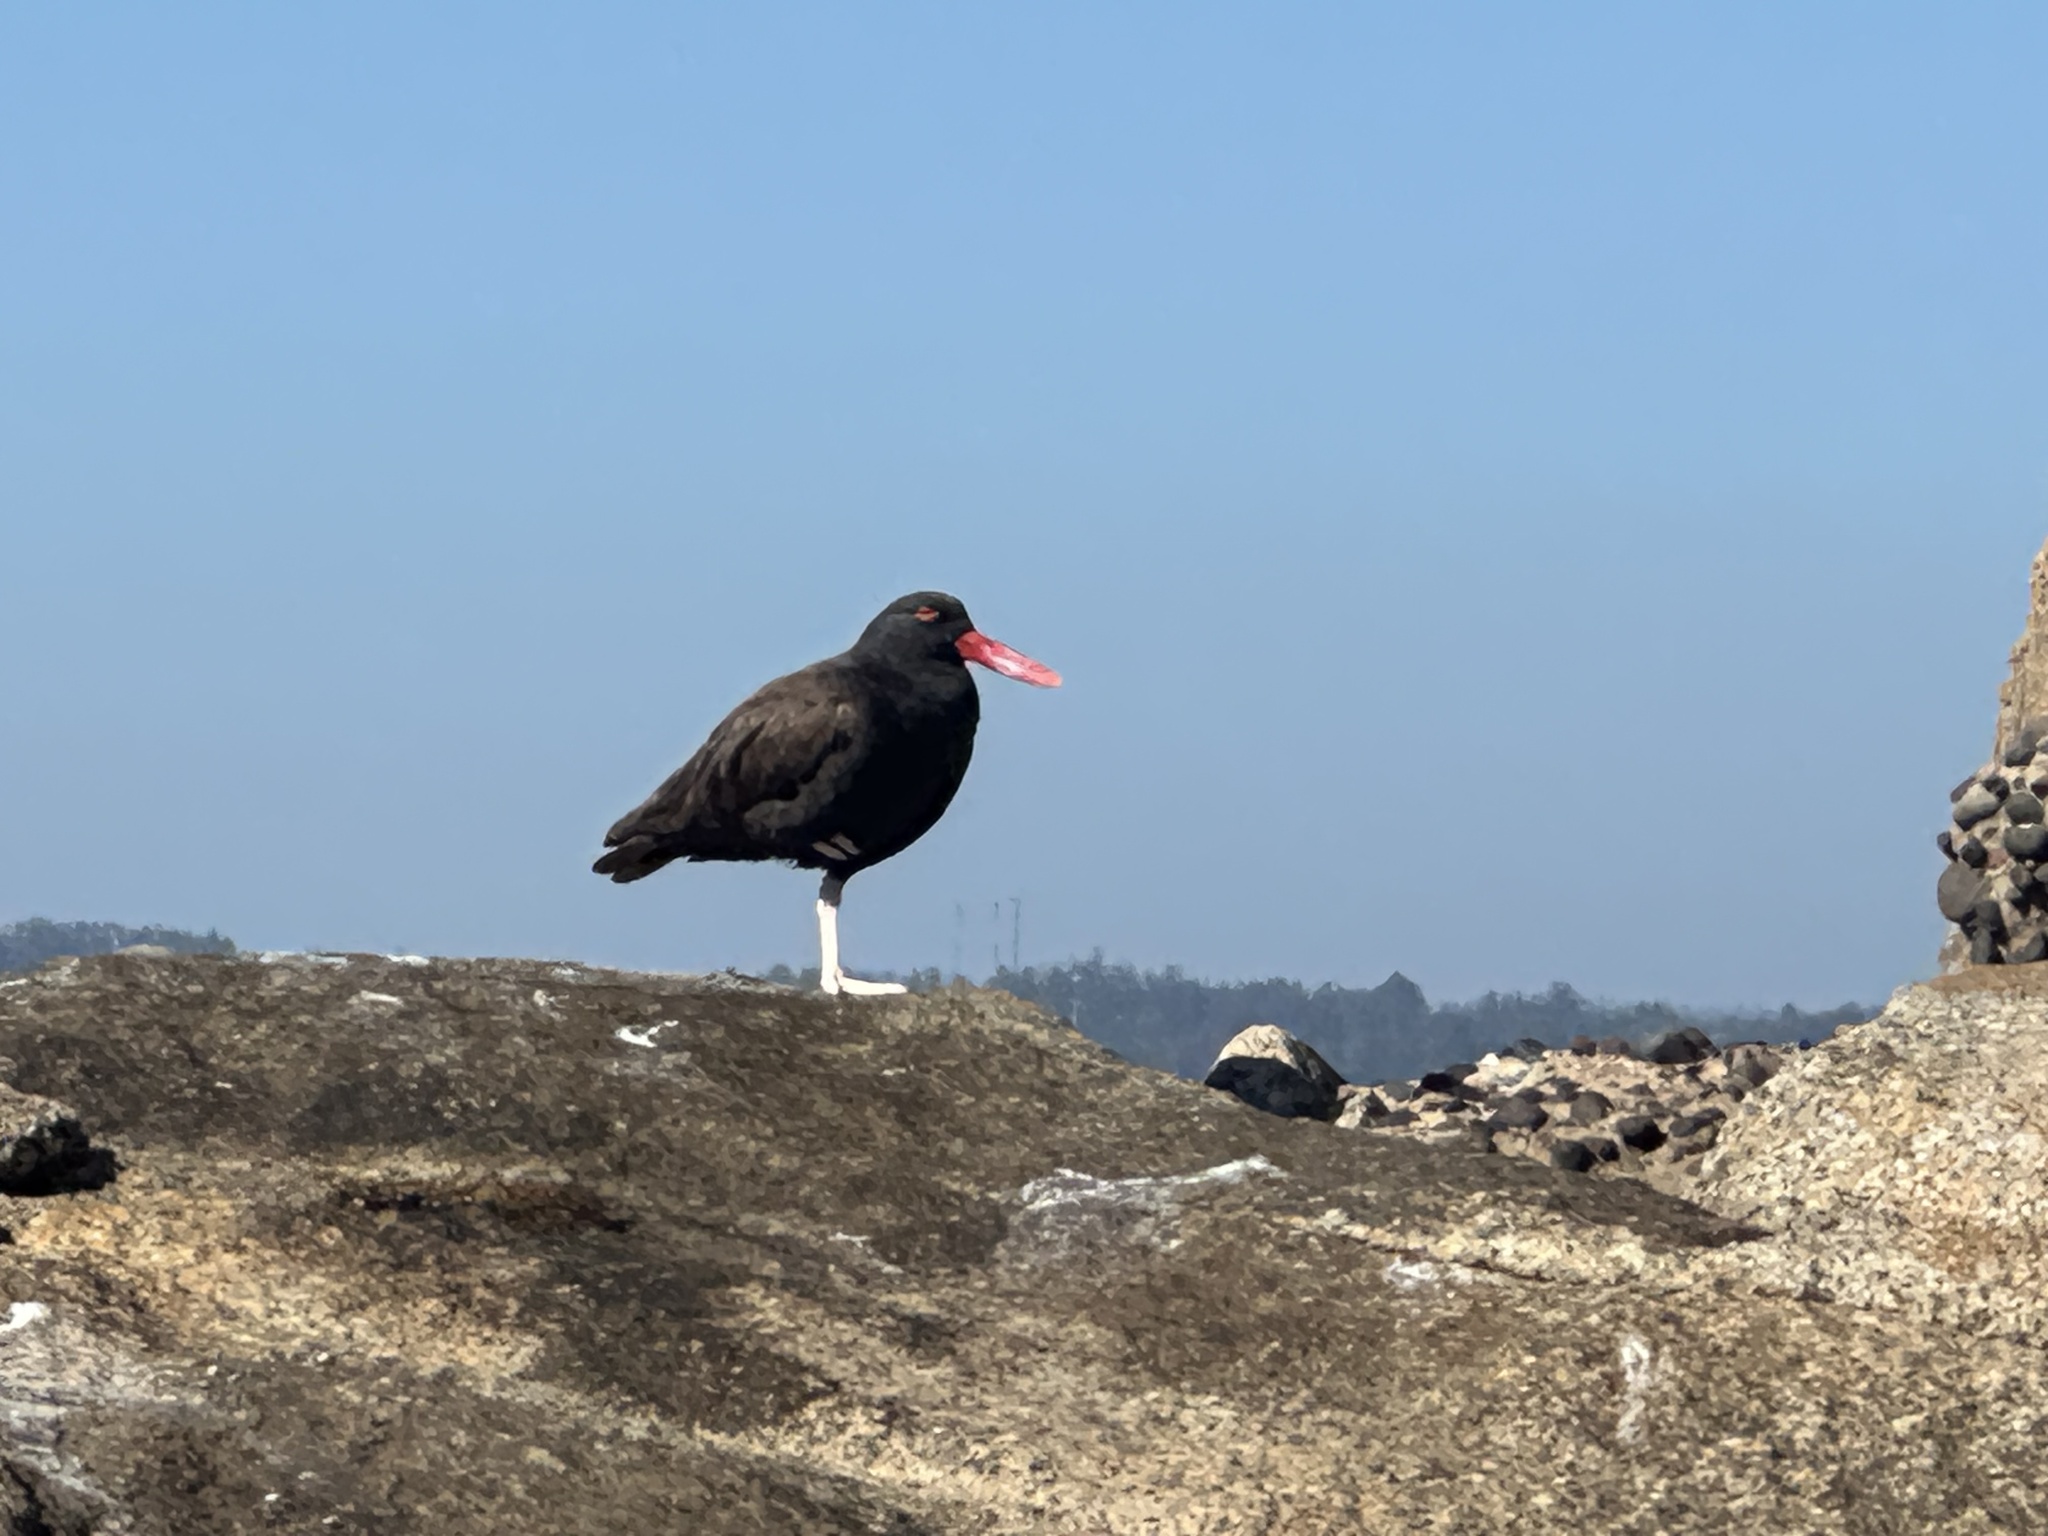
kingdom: Animalia
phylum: Chordata
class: Aves
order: Charadriiformes
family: Haematopodidae
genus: Haematopus
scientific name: Haematopus ater
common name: Blackish oystercatcher
